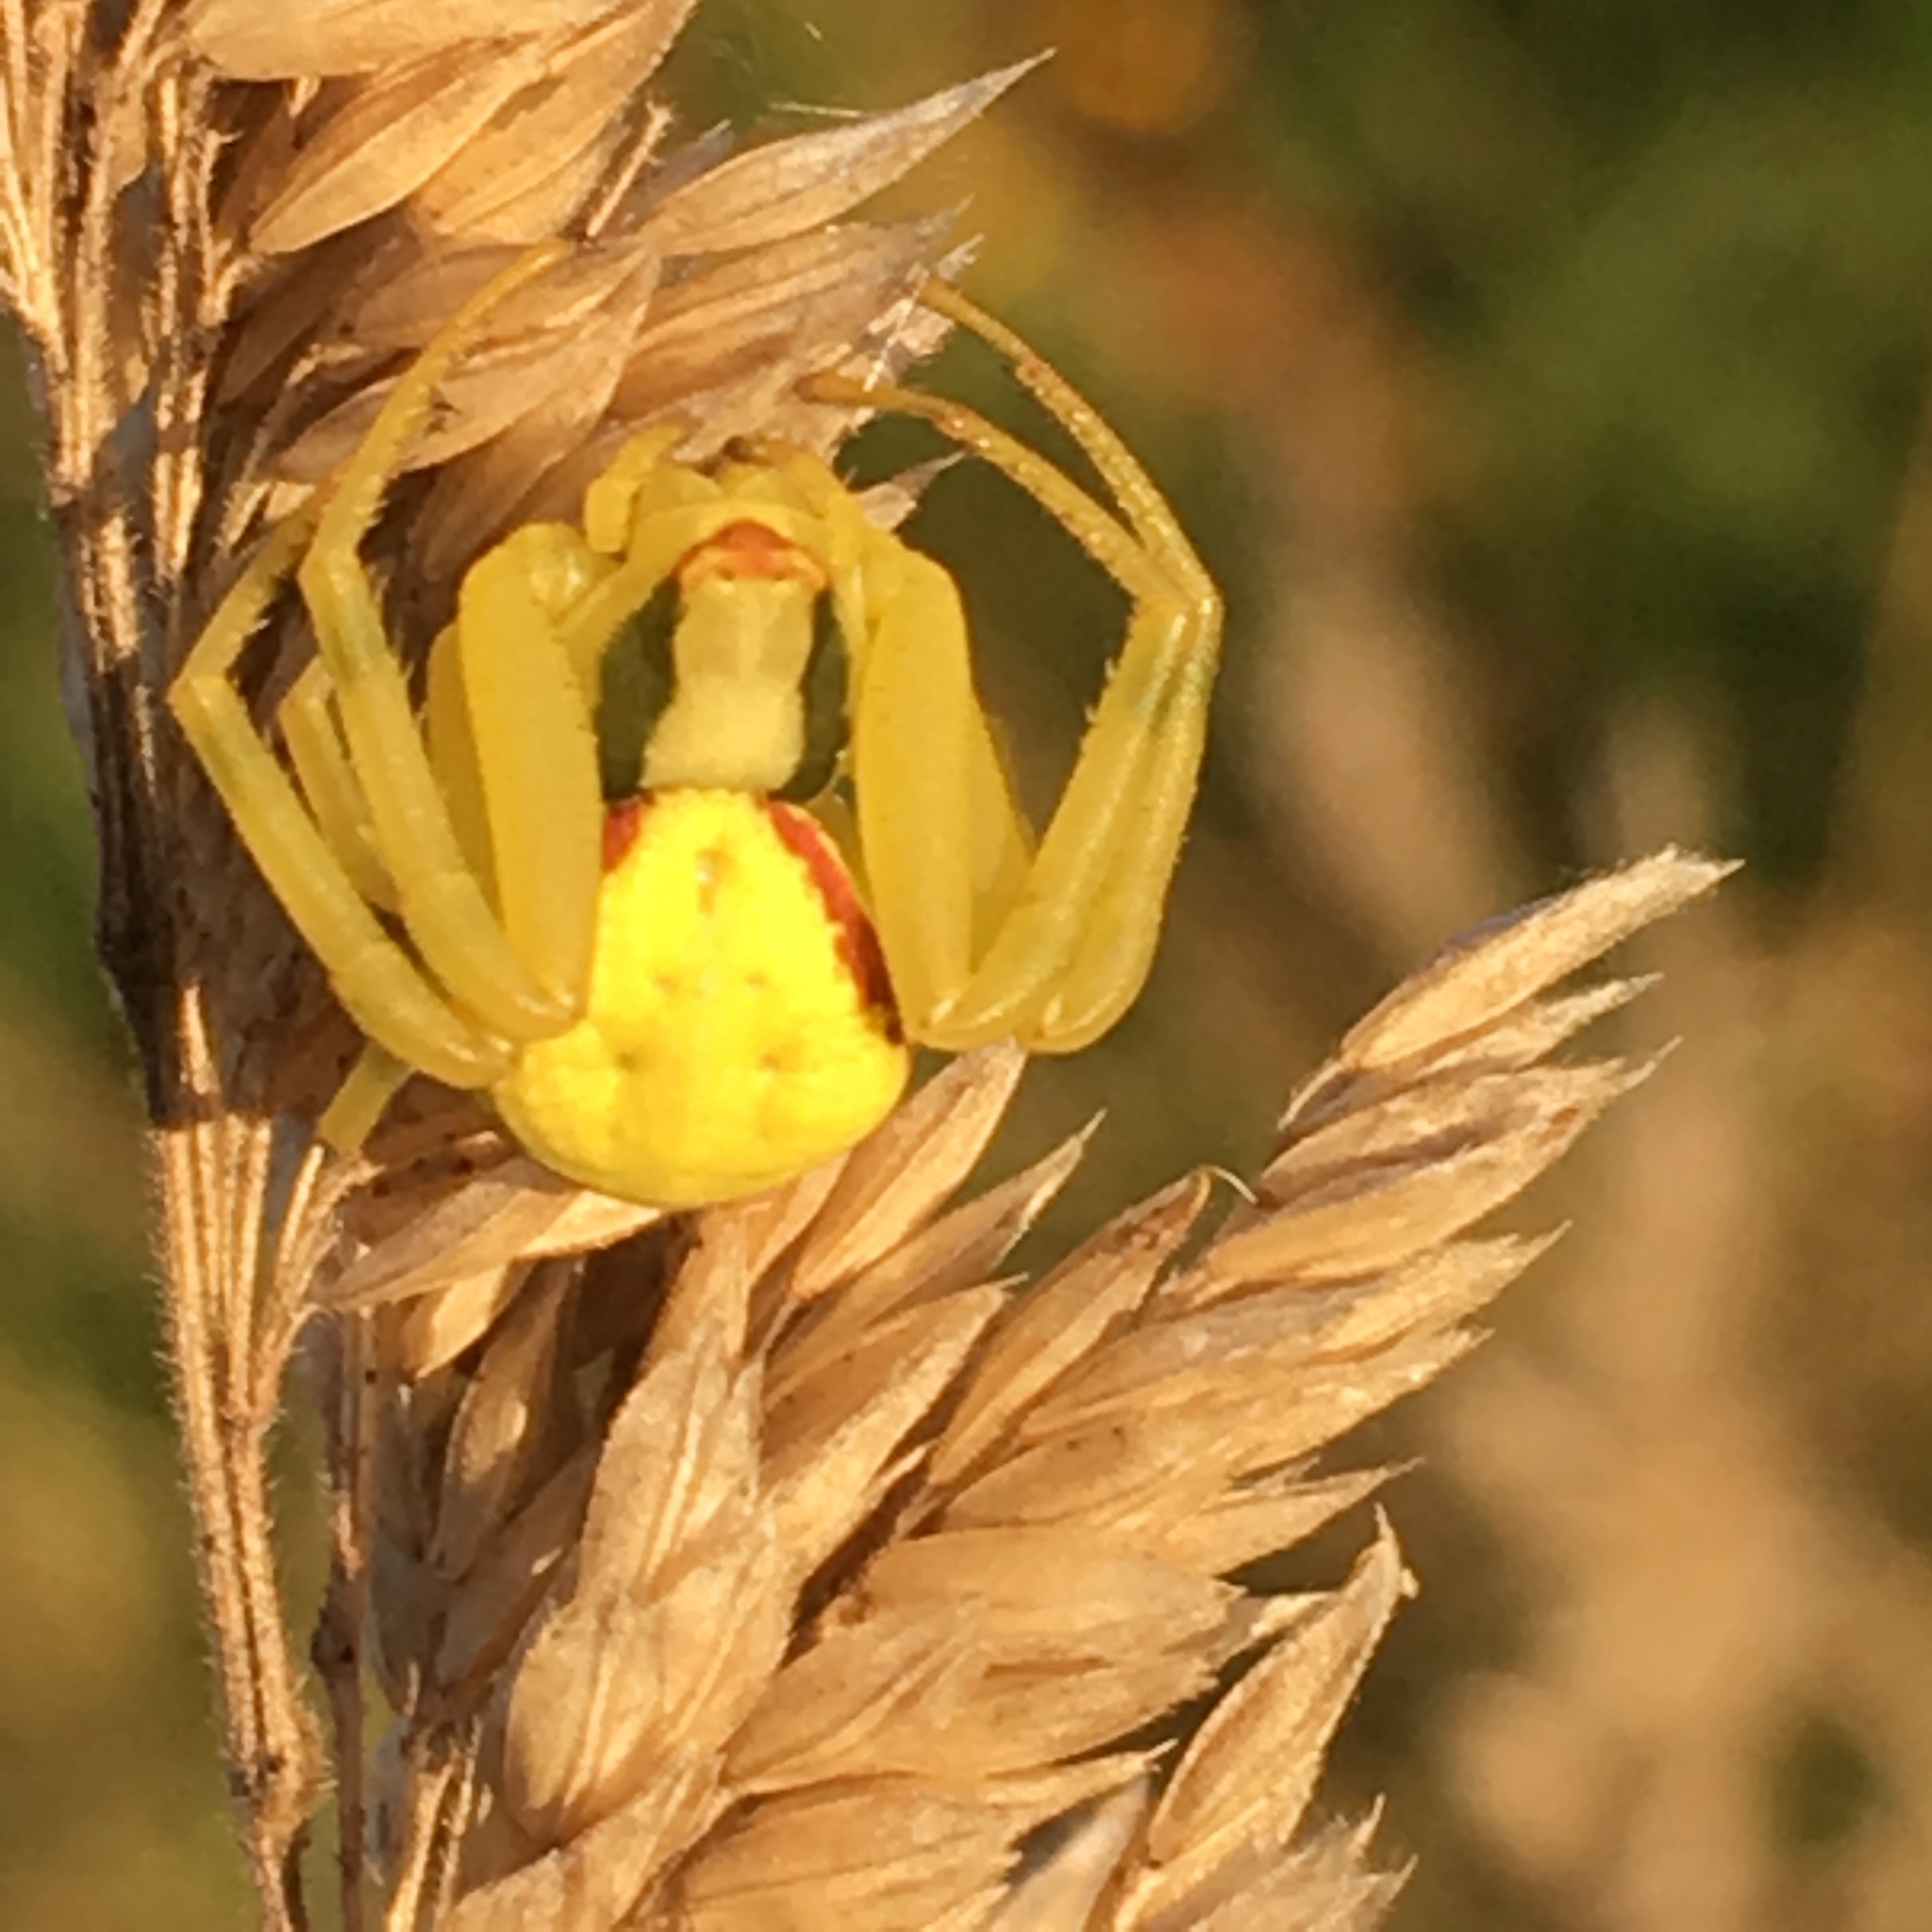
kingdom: Animalia
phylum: Arthropoda
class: Arachnida
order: Araneae
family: Thomisidae
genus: Misumena
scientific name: Misumena vatia
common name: Goldenrod crab spider
